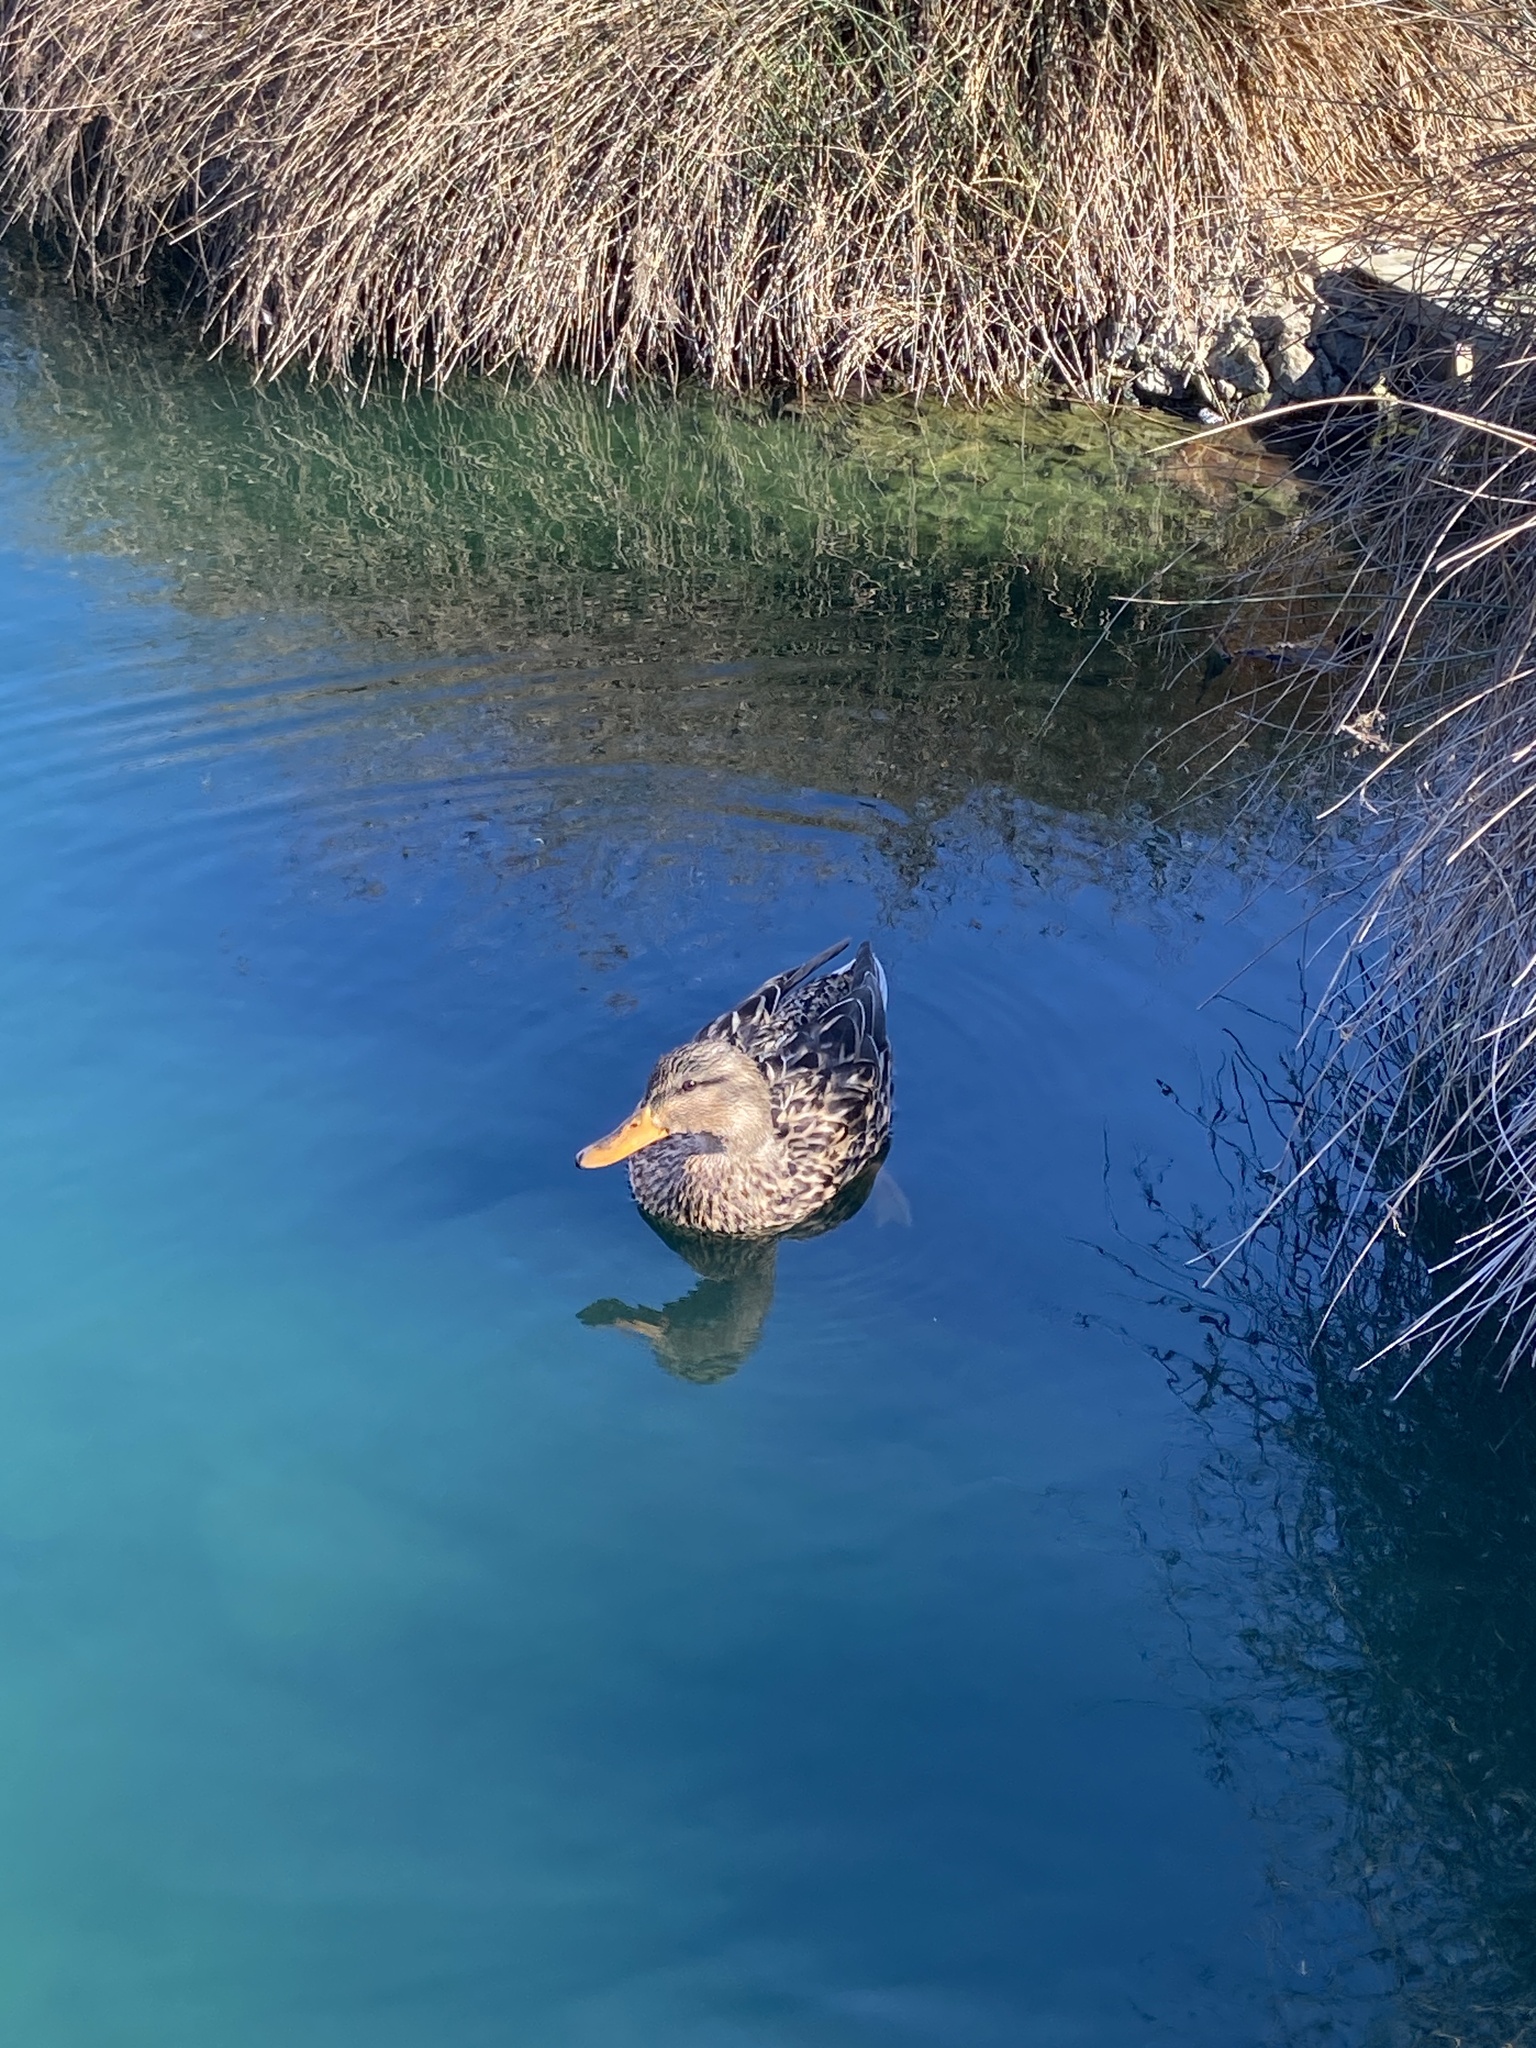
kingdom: Animalia
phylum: Chordata
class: Aves
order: Anseriformes
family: Anatidae
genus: Anas
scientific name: Anas platyrhynchos
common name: Mallard
